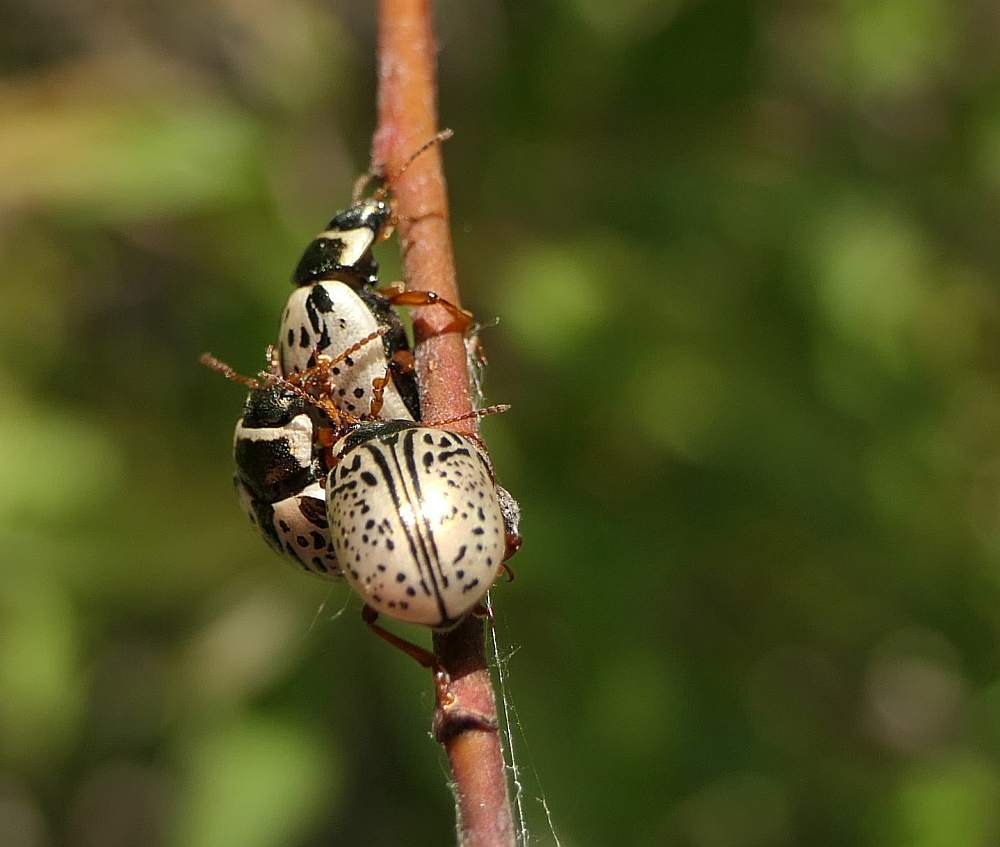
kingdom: Animalia
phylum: Arthropoda
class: Insecta
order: Coleoptera
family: Chrysomelidae
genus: Calligrapha
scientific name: Calligrapha multipunctata
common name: Common willow calligrapher beetle
